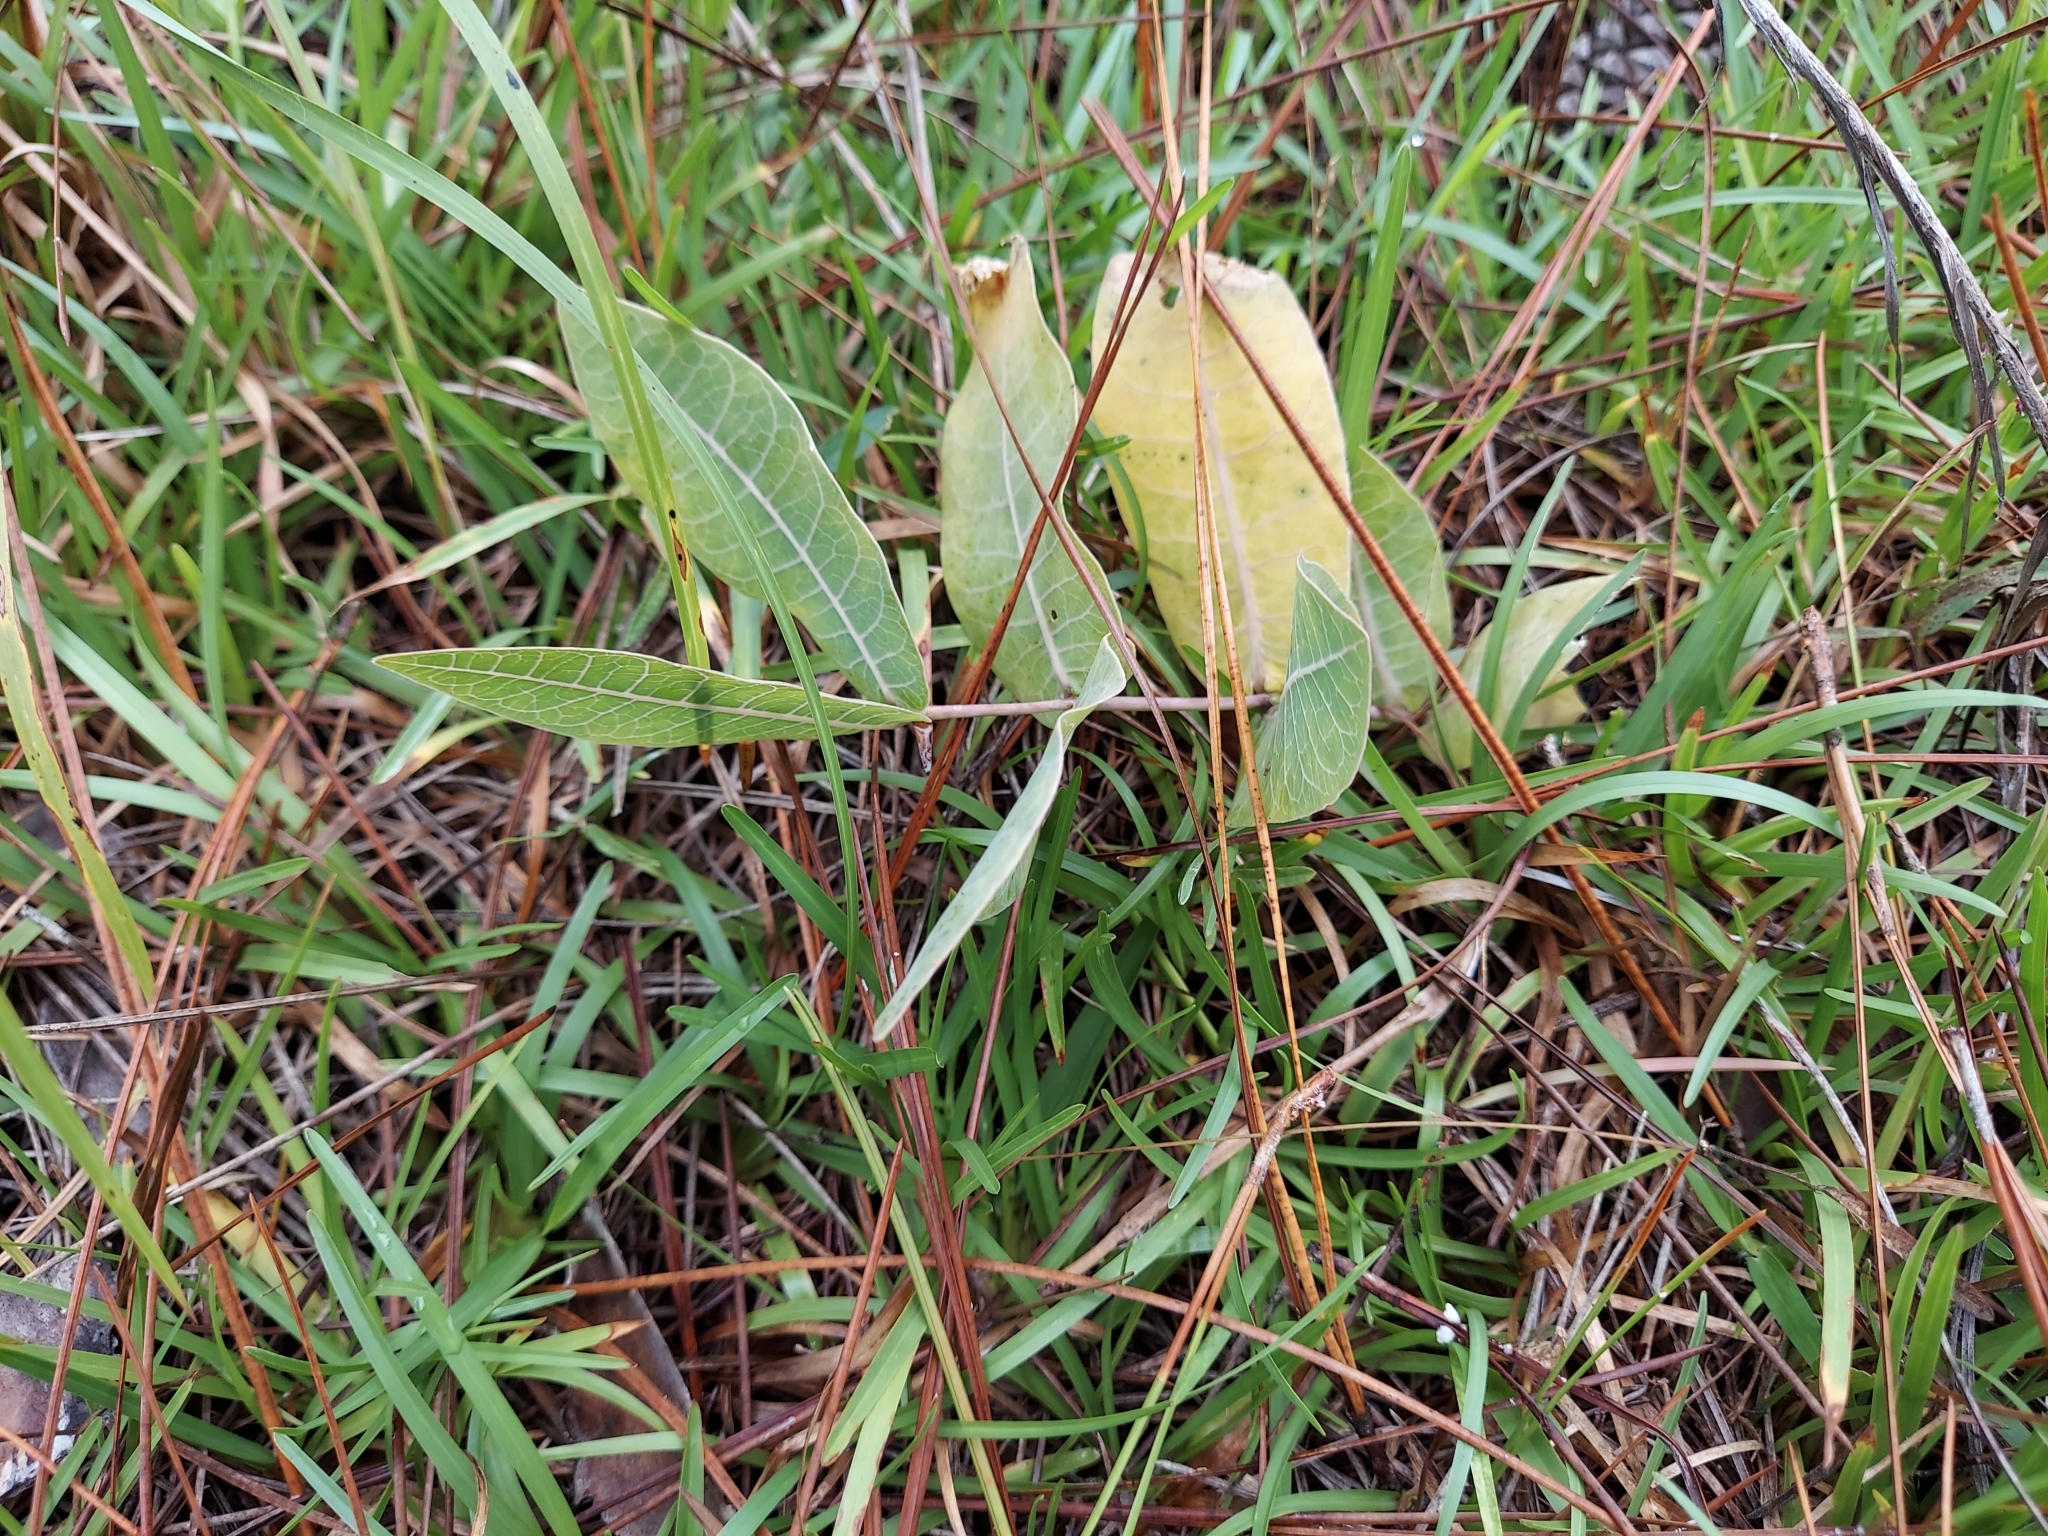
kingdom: Plantae
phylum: Tracheophyta
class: Magnoliopsida
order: Gentianales
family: Apocynaceae
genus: Asclepias
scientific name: Asclepias humistrata
